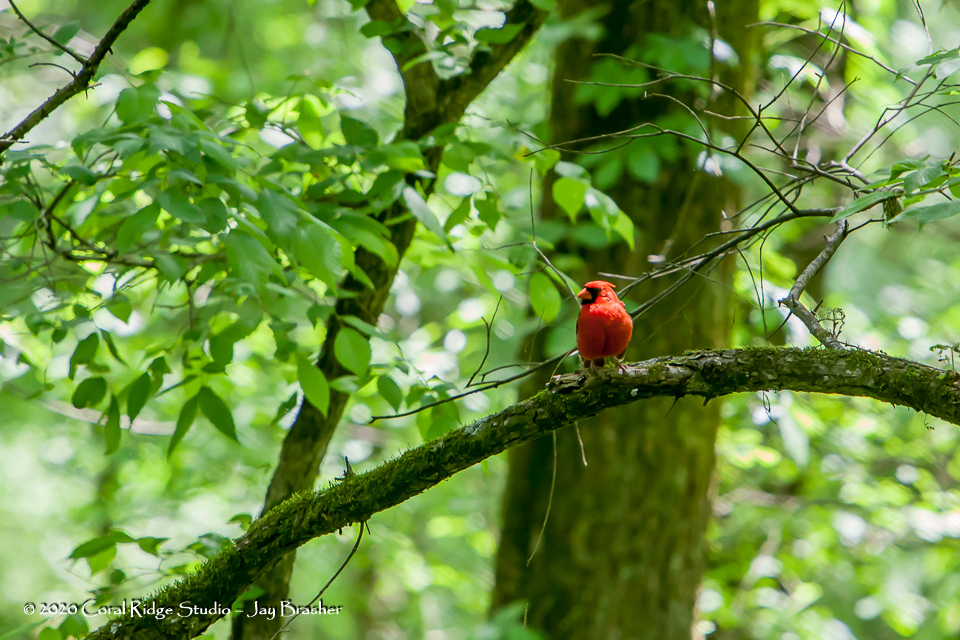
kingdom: Animalia
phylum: Chordata
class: Aves
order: Passeriformes
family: Cardinalidae
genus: Cardinalis
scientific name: Cardinalis cardinalis
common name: Northern cardinal
